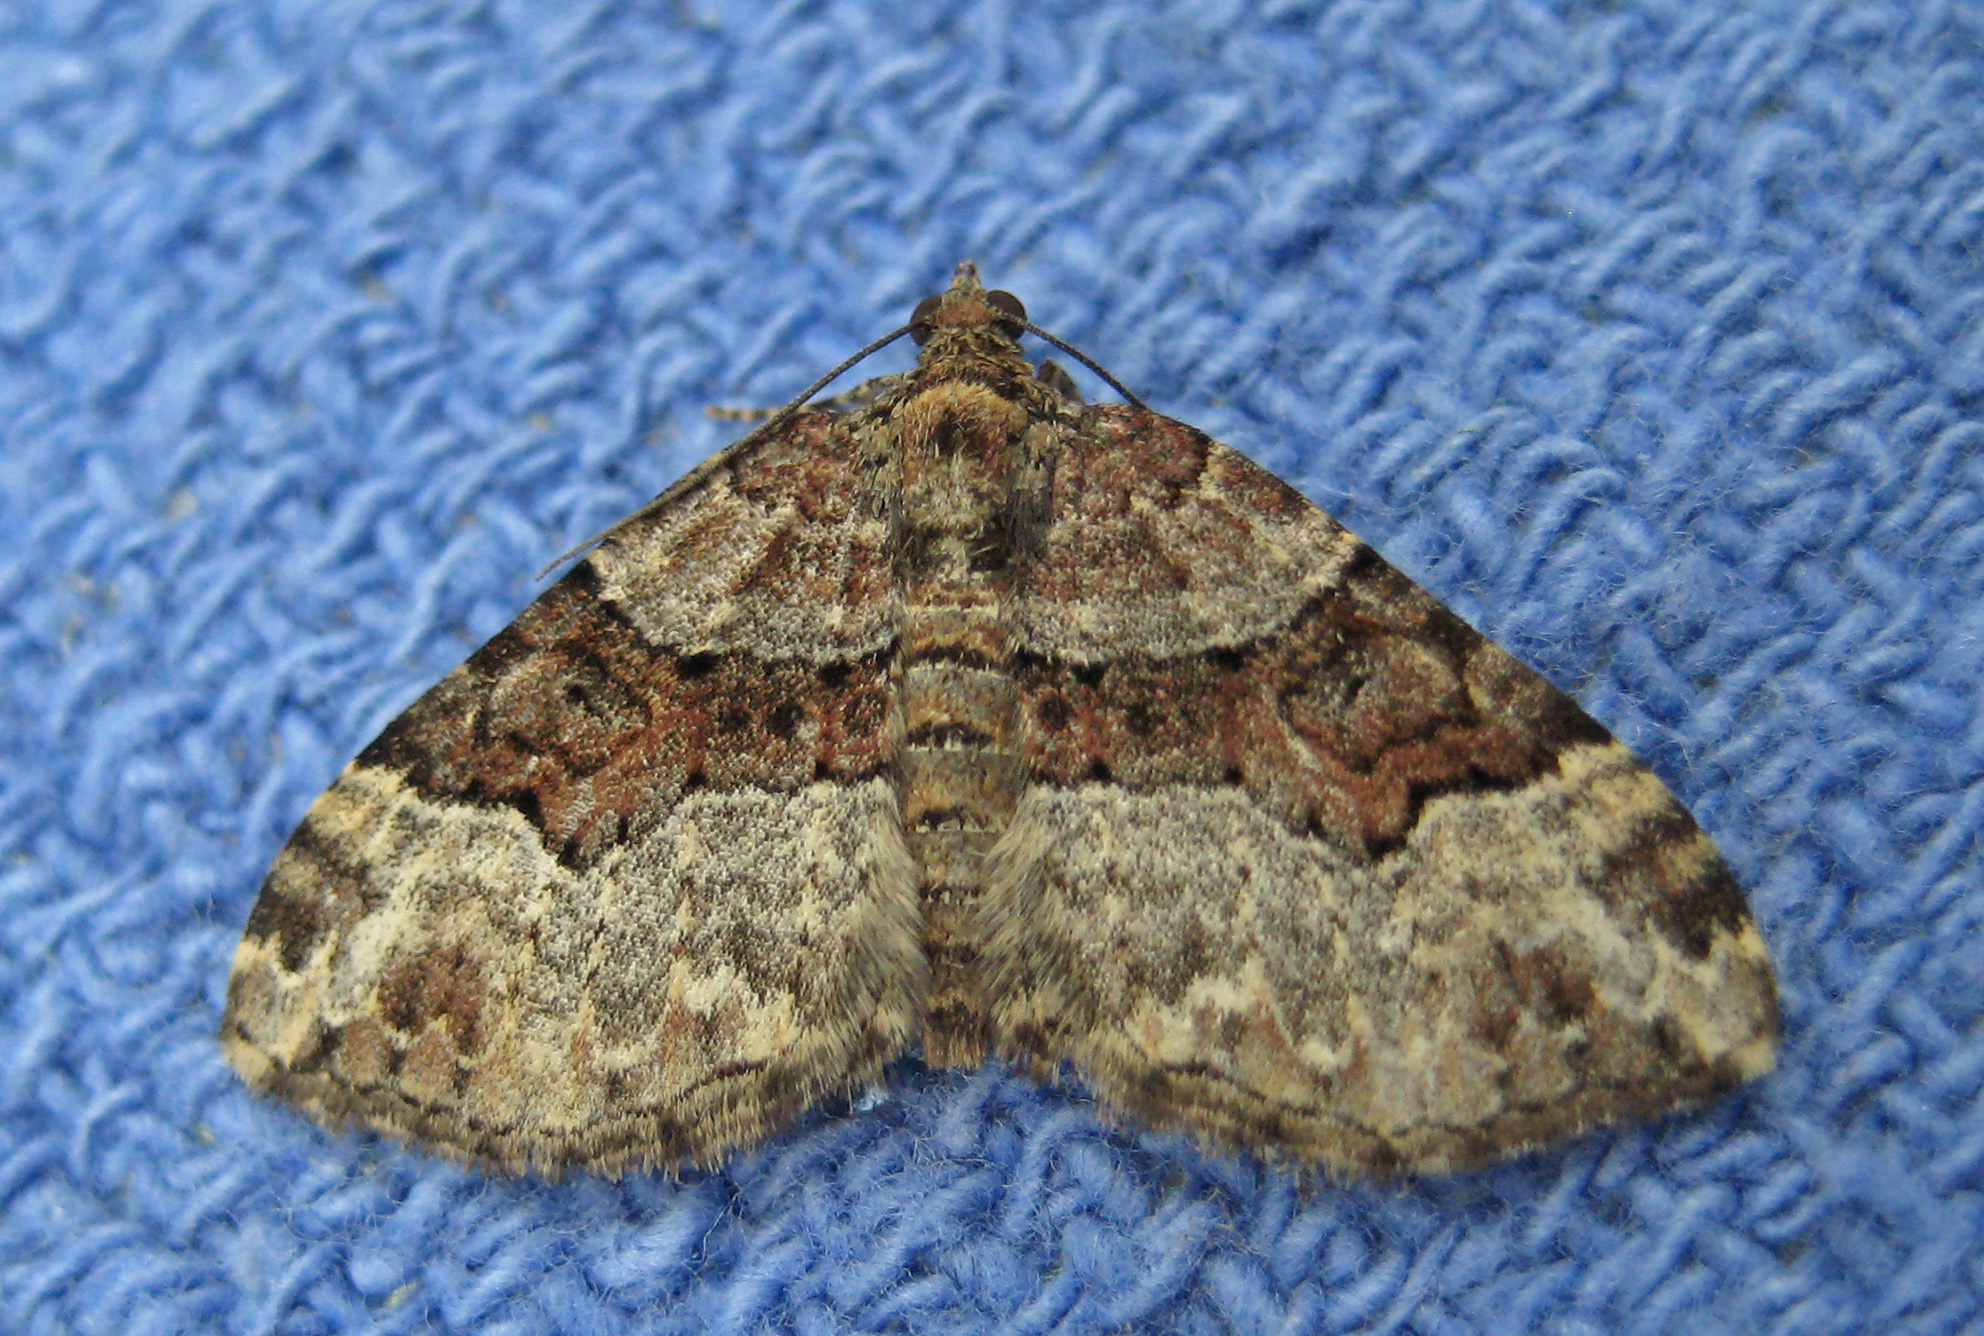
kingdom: Animalia
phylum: Arthropoda
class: Insecta
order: Lepidoptera
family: Geometridae
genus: Xanthorhoe
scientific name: Xanthorhoe lacustrata
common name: Toothed brown carpet
